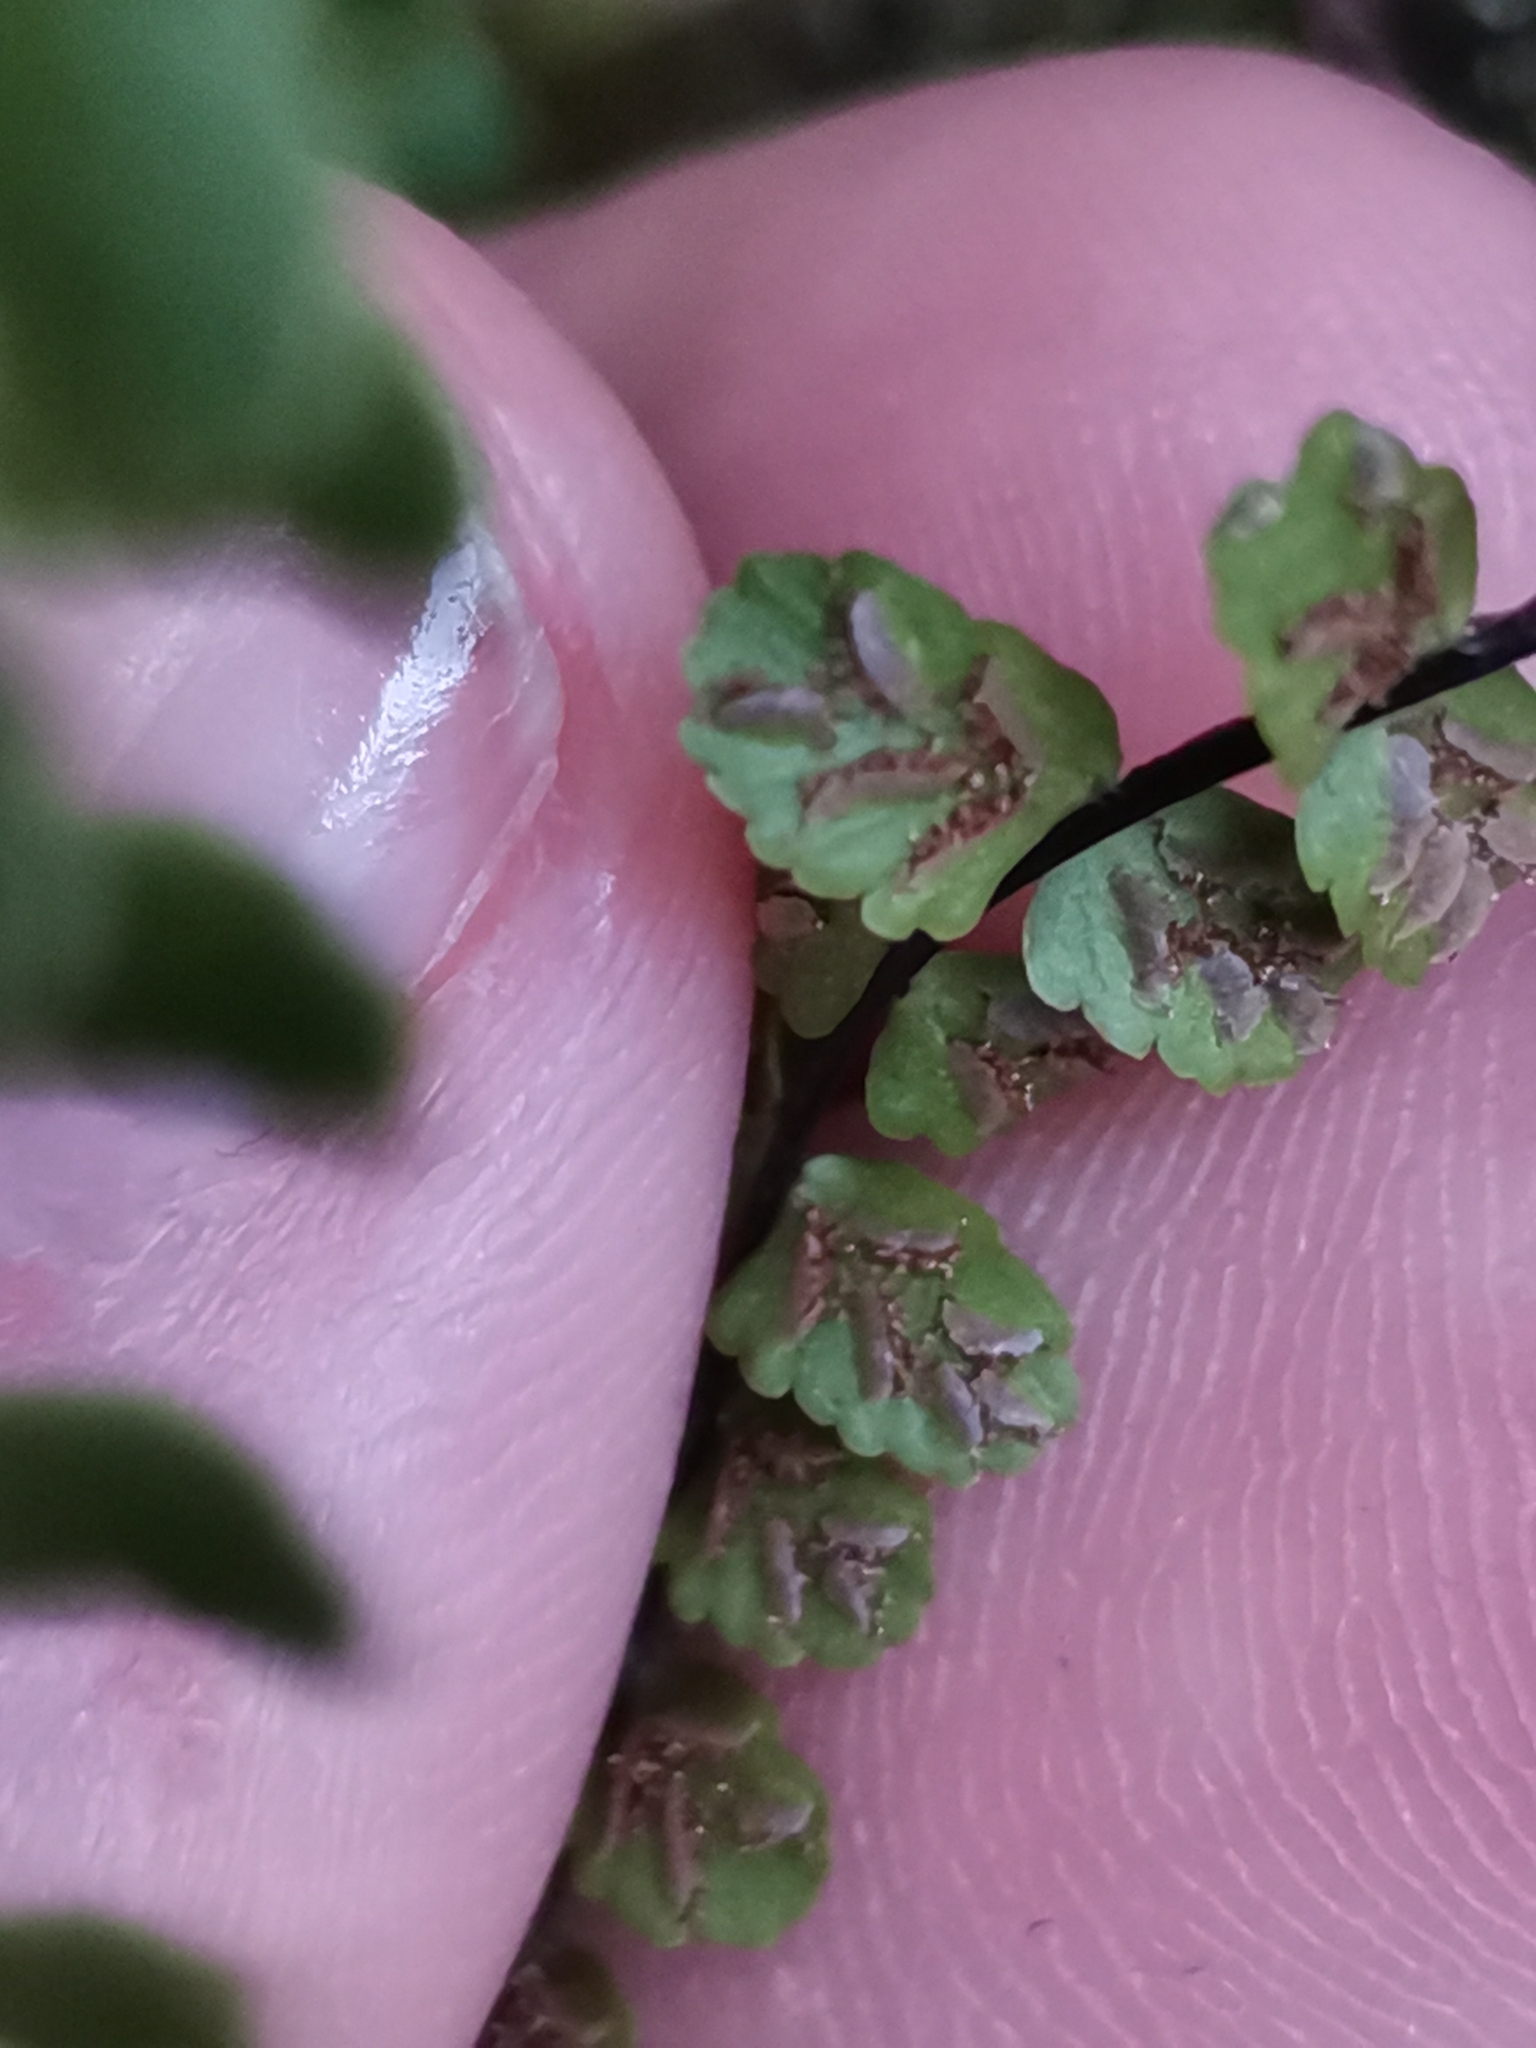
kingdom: Plantae
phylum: Tracheophyta
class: Polypodiopsida
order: Polypodiales
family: Aspleniaceae
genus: Asplenium
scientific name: Asplenium trichomanes
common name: Maidenhair spleenwort
